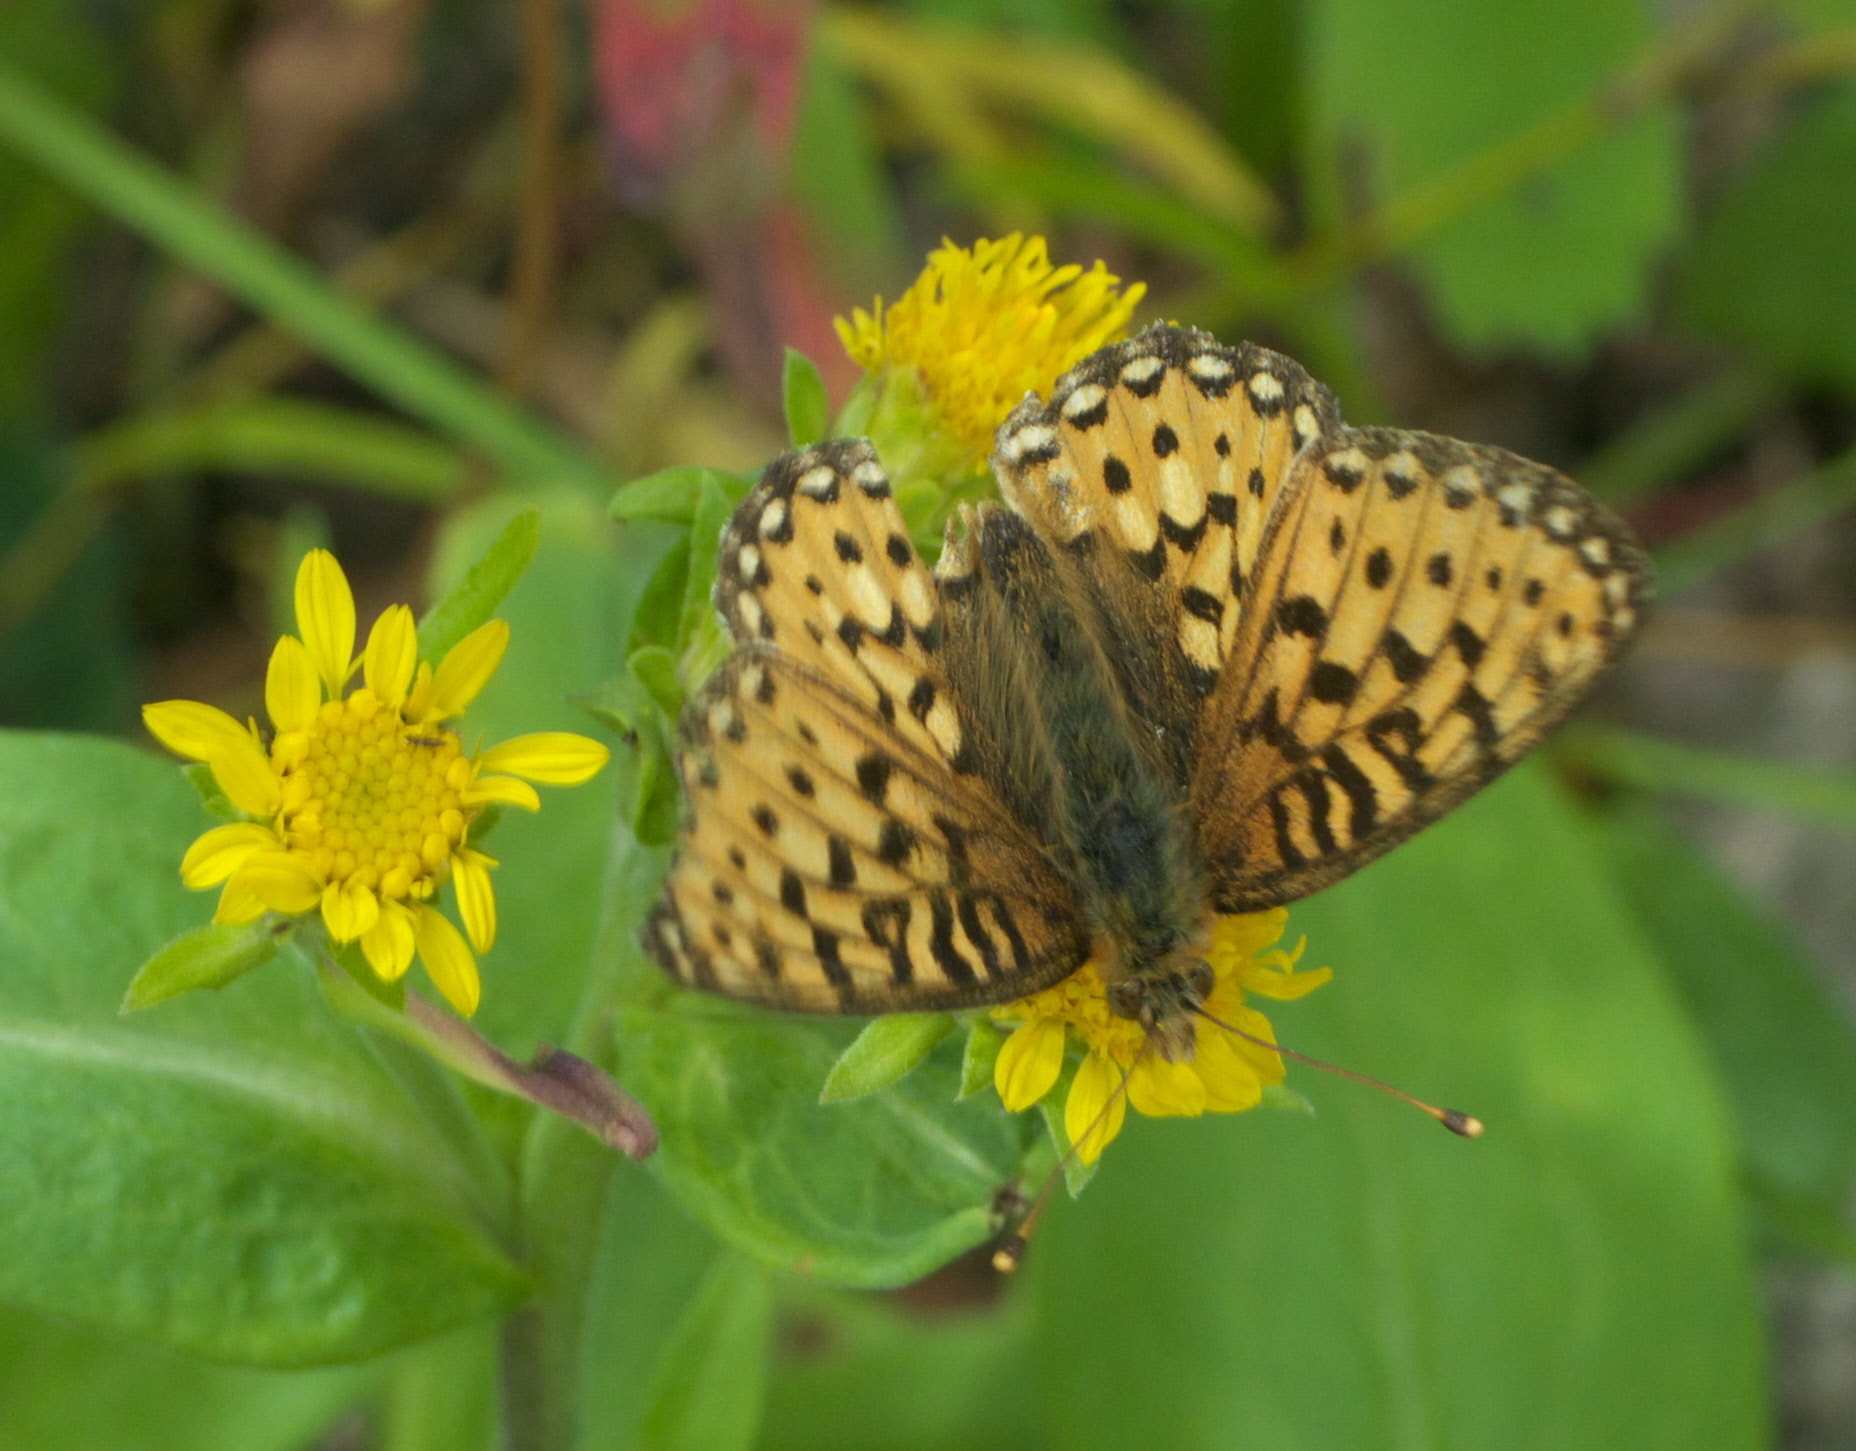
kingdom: Animalia
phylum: Arthropoda
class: Insecta
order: Lepidoptera
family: Nymphalidae
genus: Speyeria
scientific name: Speyeria mormonia
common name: Mormon fritillary
